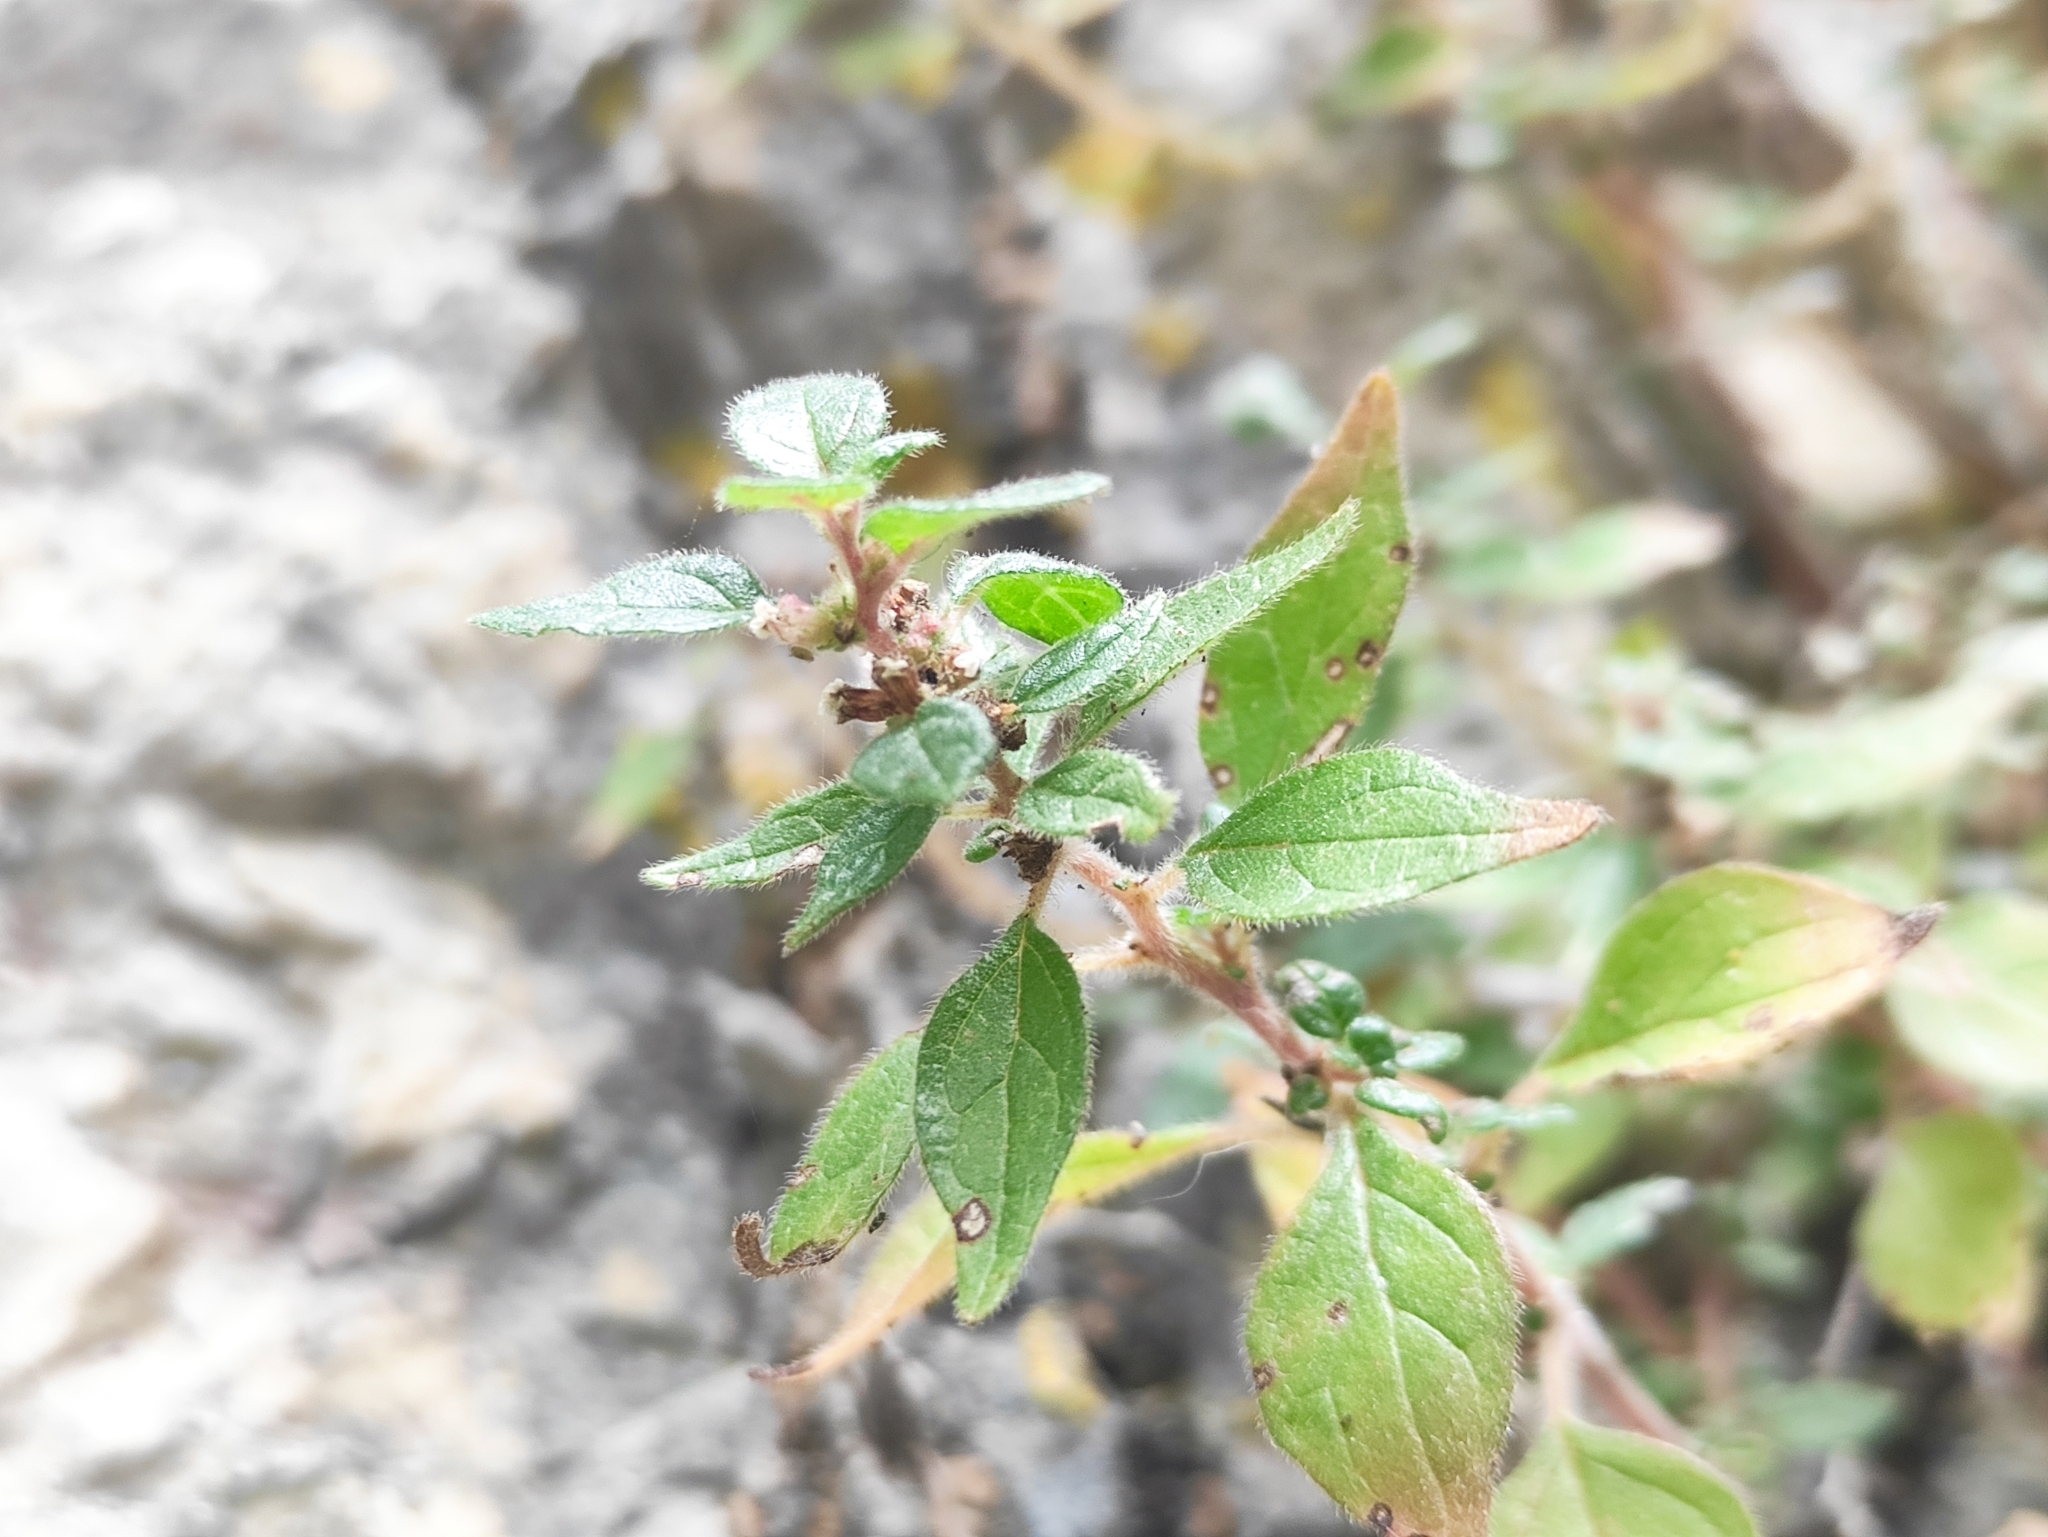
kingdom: Plantae
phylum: Tracheophyta
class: Magnoliopsida
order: Rosales
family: Urticaceae
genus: Parietaria
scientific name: Parietaria judaica
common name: Pellitory-of-the-wall
